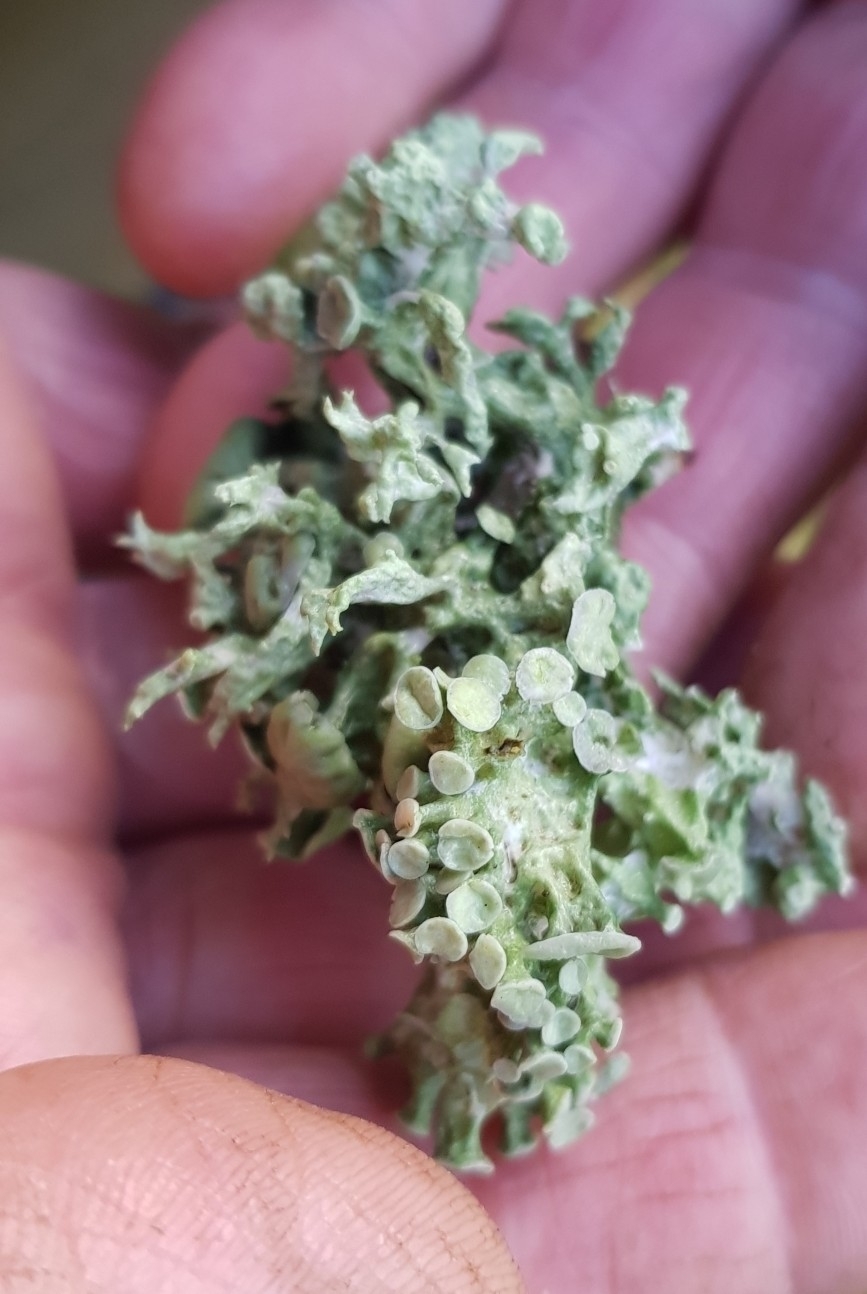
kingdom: Fungi
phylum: Ascomycota
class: Lecanoromycetes
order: Lecanorales
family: Ramalinaceae
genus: Ramalina
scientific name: Ramalina fastigiata
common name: Dotted ribbon lichen
